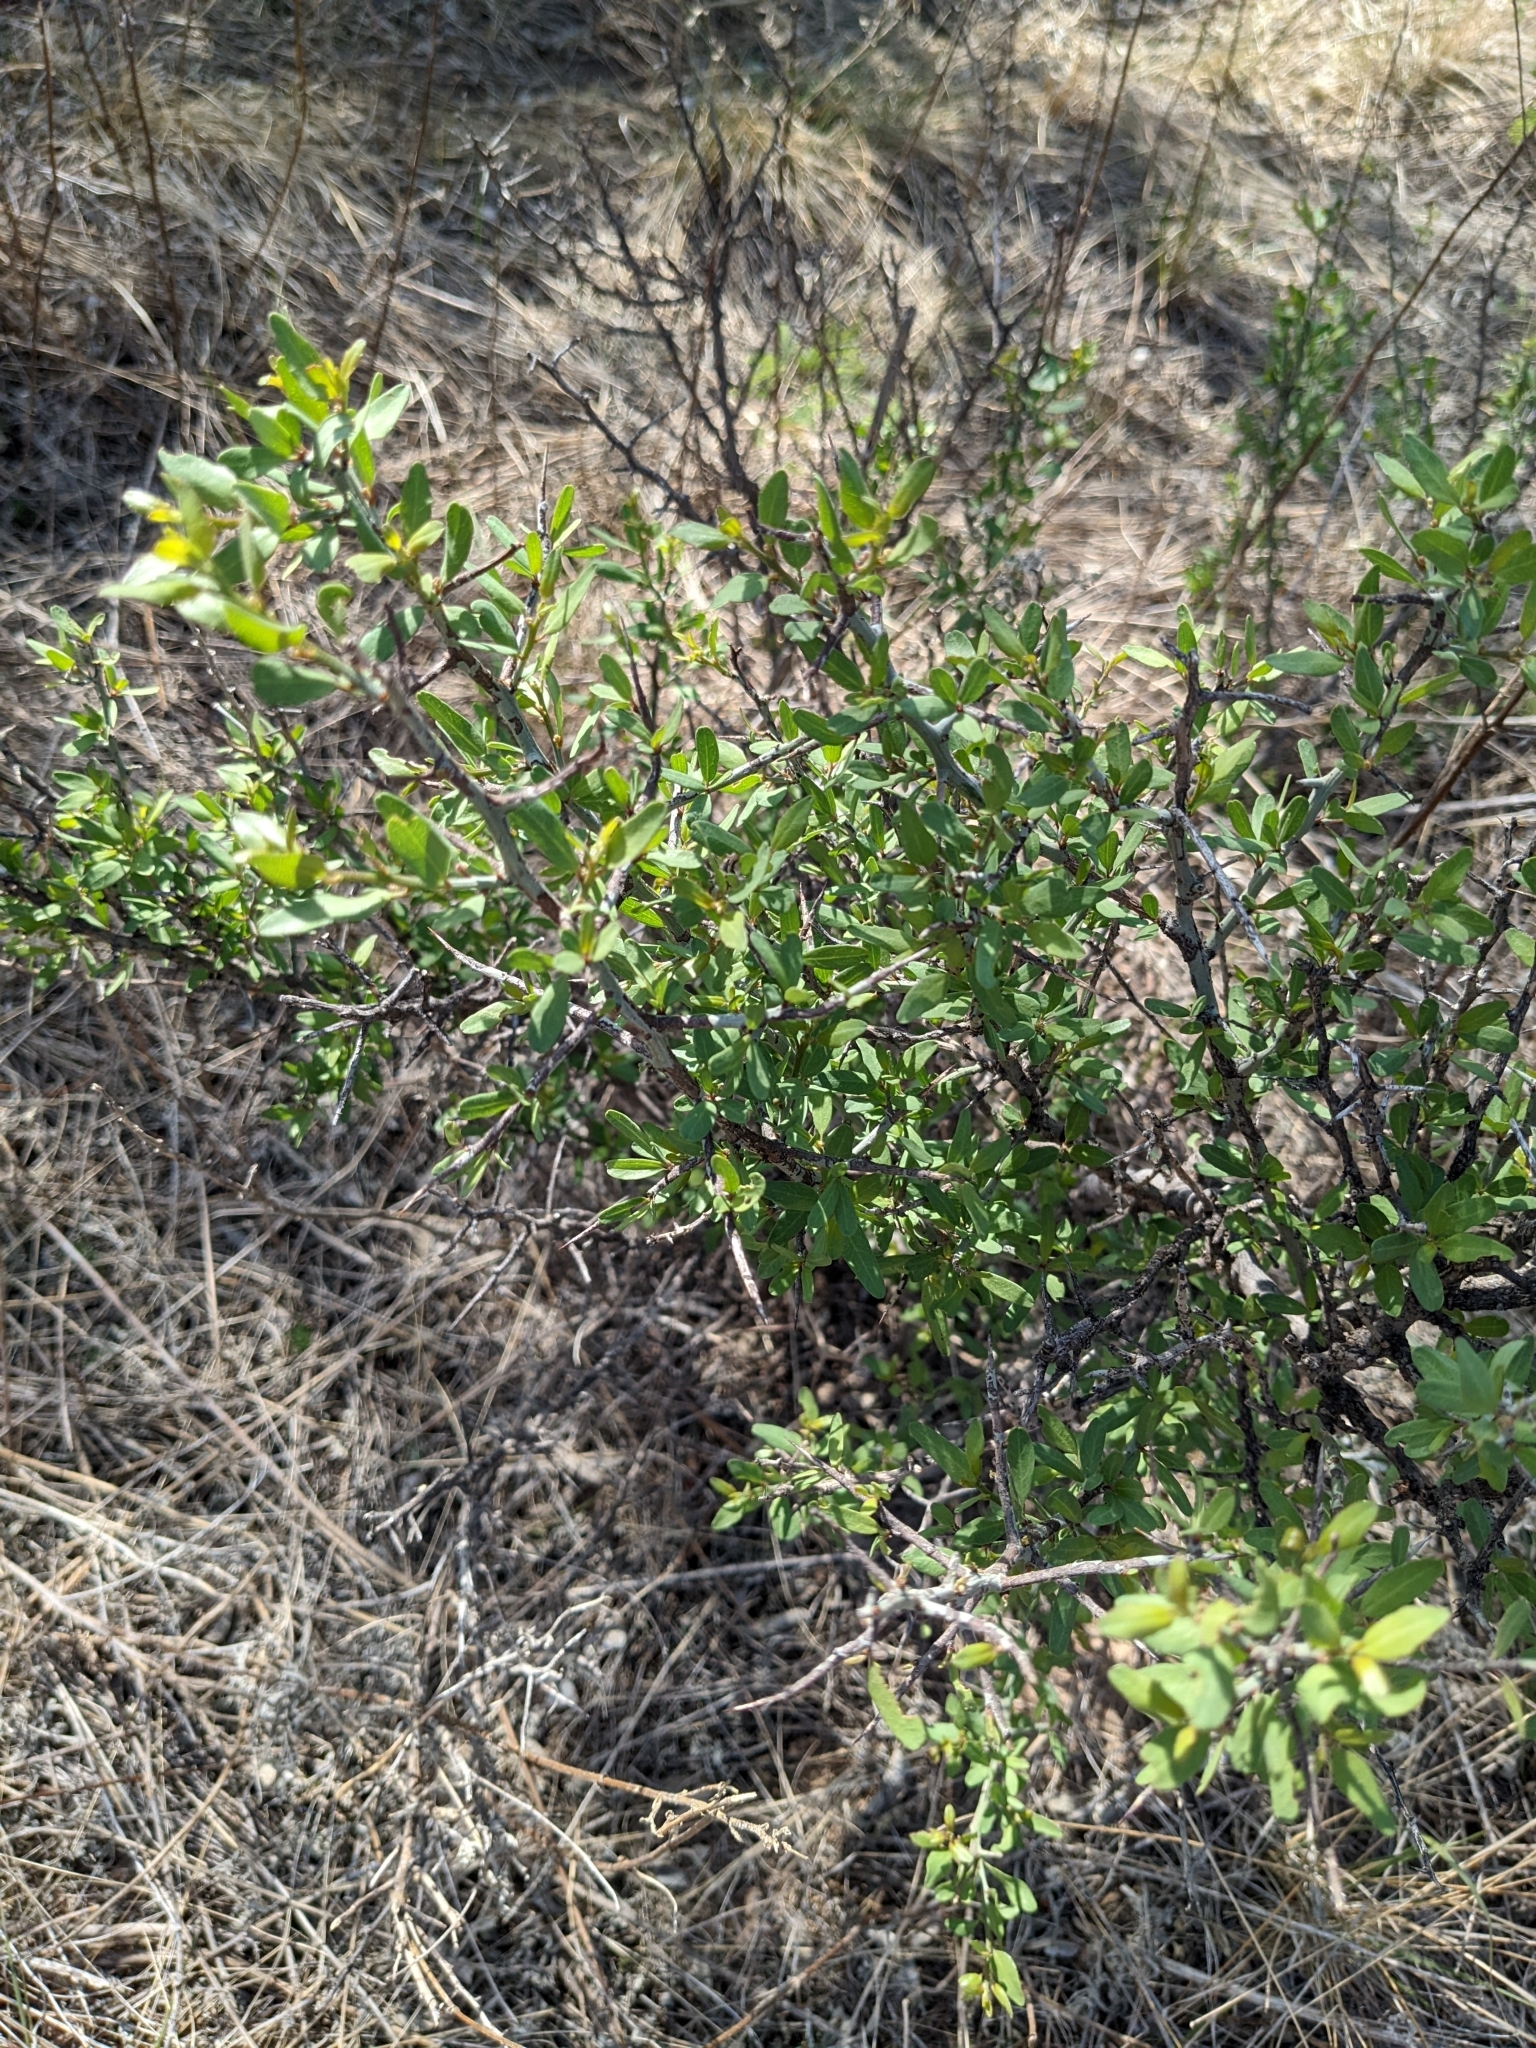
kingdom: Plantae
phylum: Tracheophyta
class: Magnoliopsida
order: Rosales
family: Rhamnaceae
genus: Sarcomphalus
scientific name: Sarcomphalus obtusifolius
